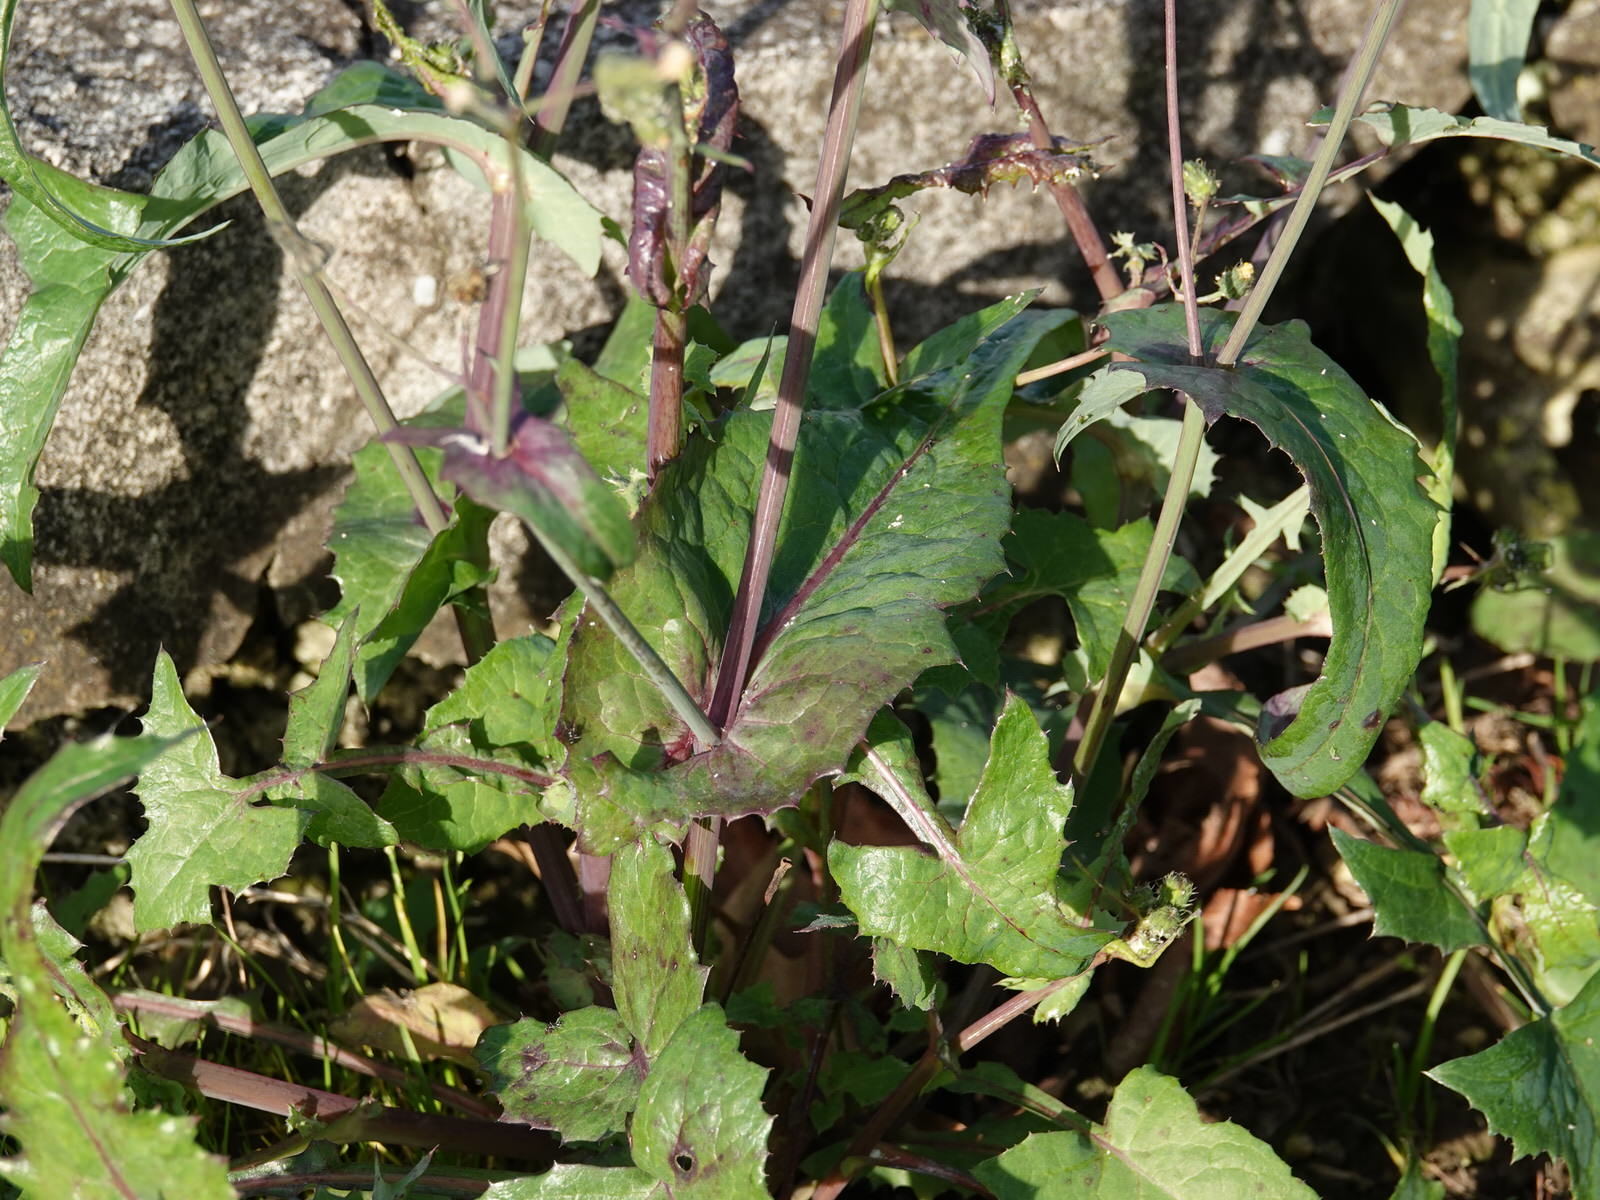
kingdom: Plantae
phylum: Tracheophyta
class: Magnoliopsida
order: Asterales
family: Asteraceae
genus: Sonchus
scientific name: Sonchus oleraceus
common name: Common sowthistle
